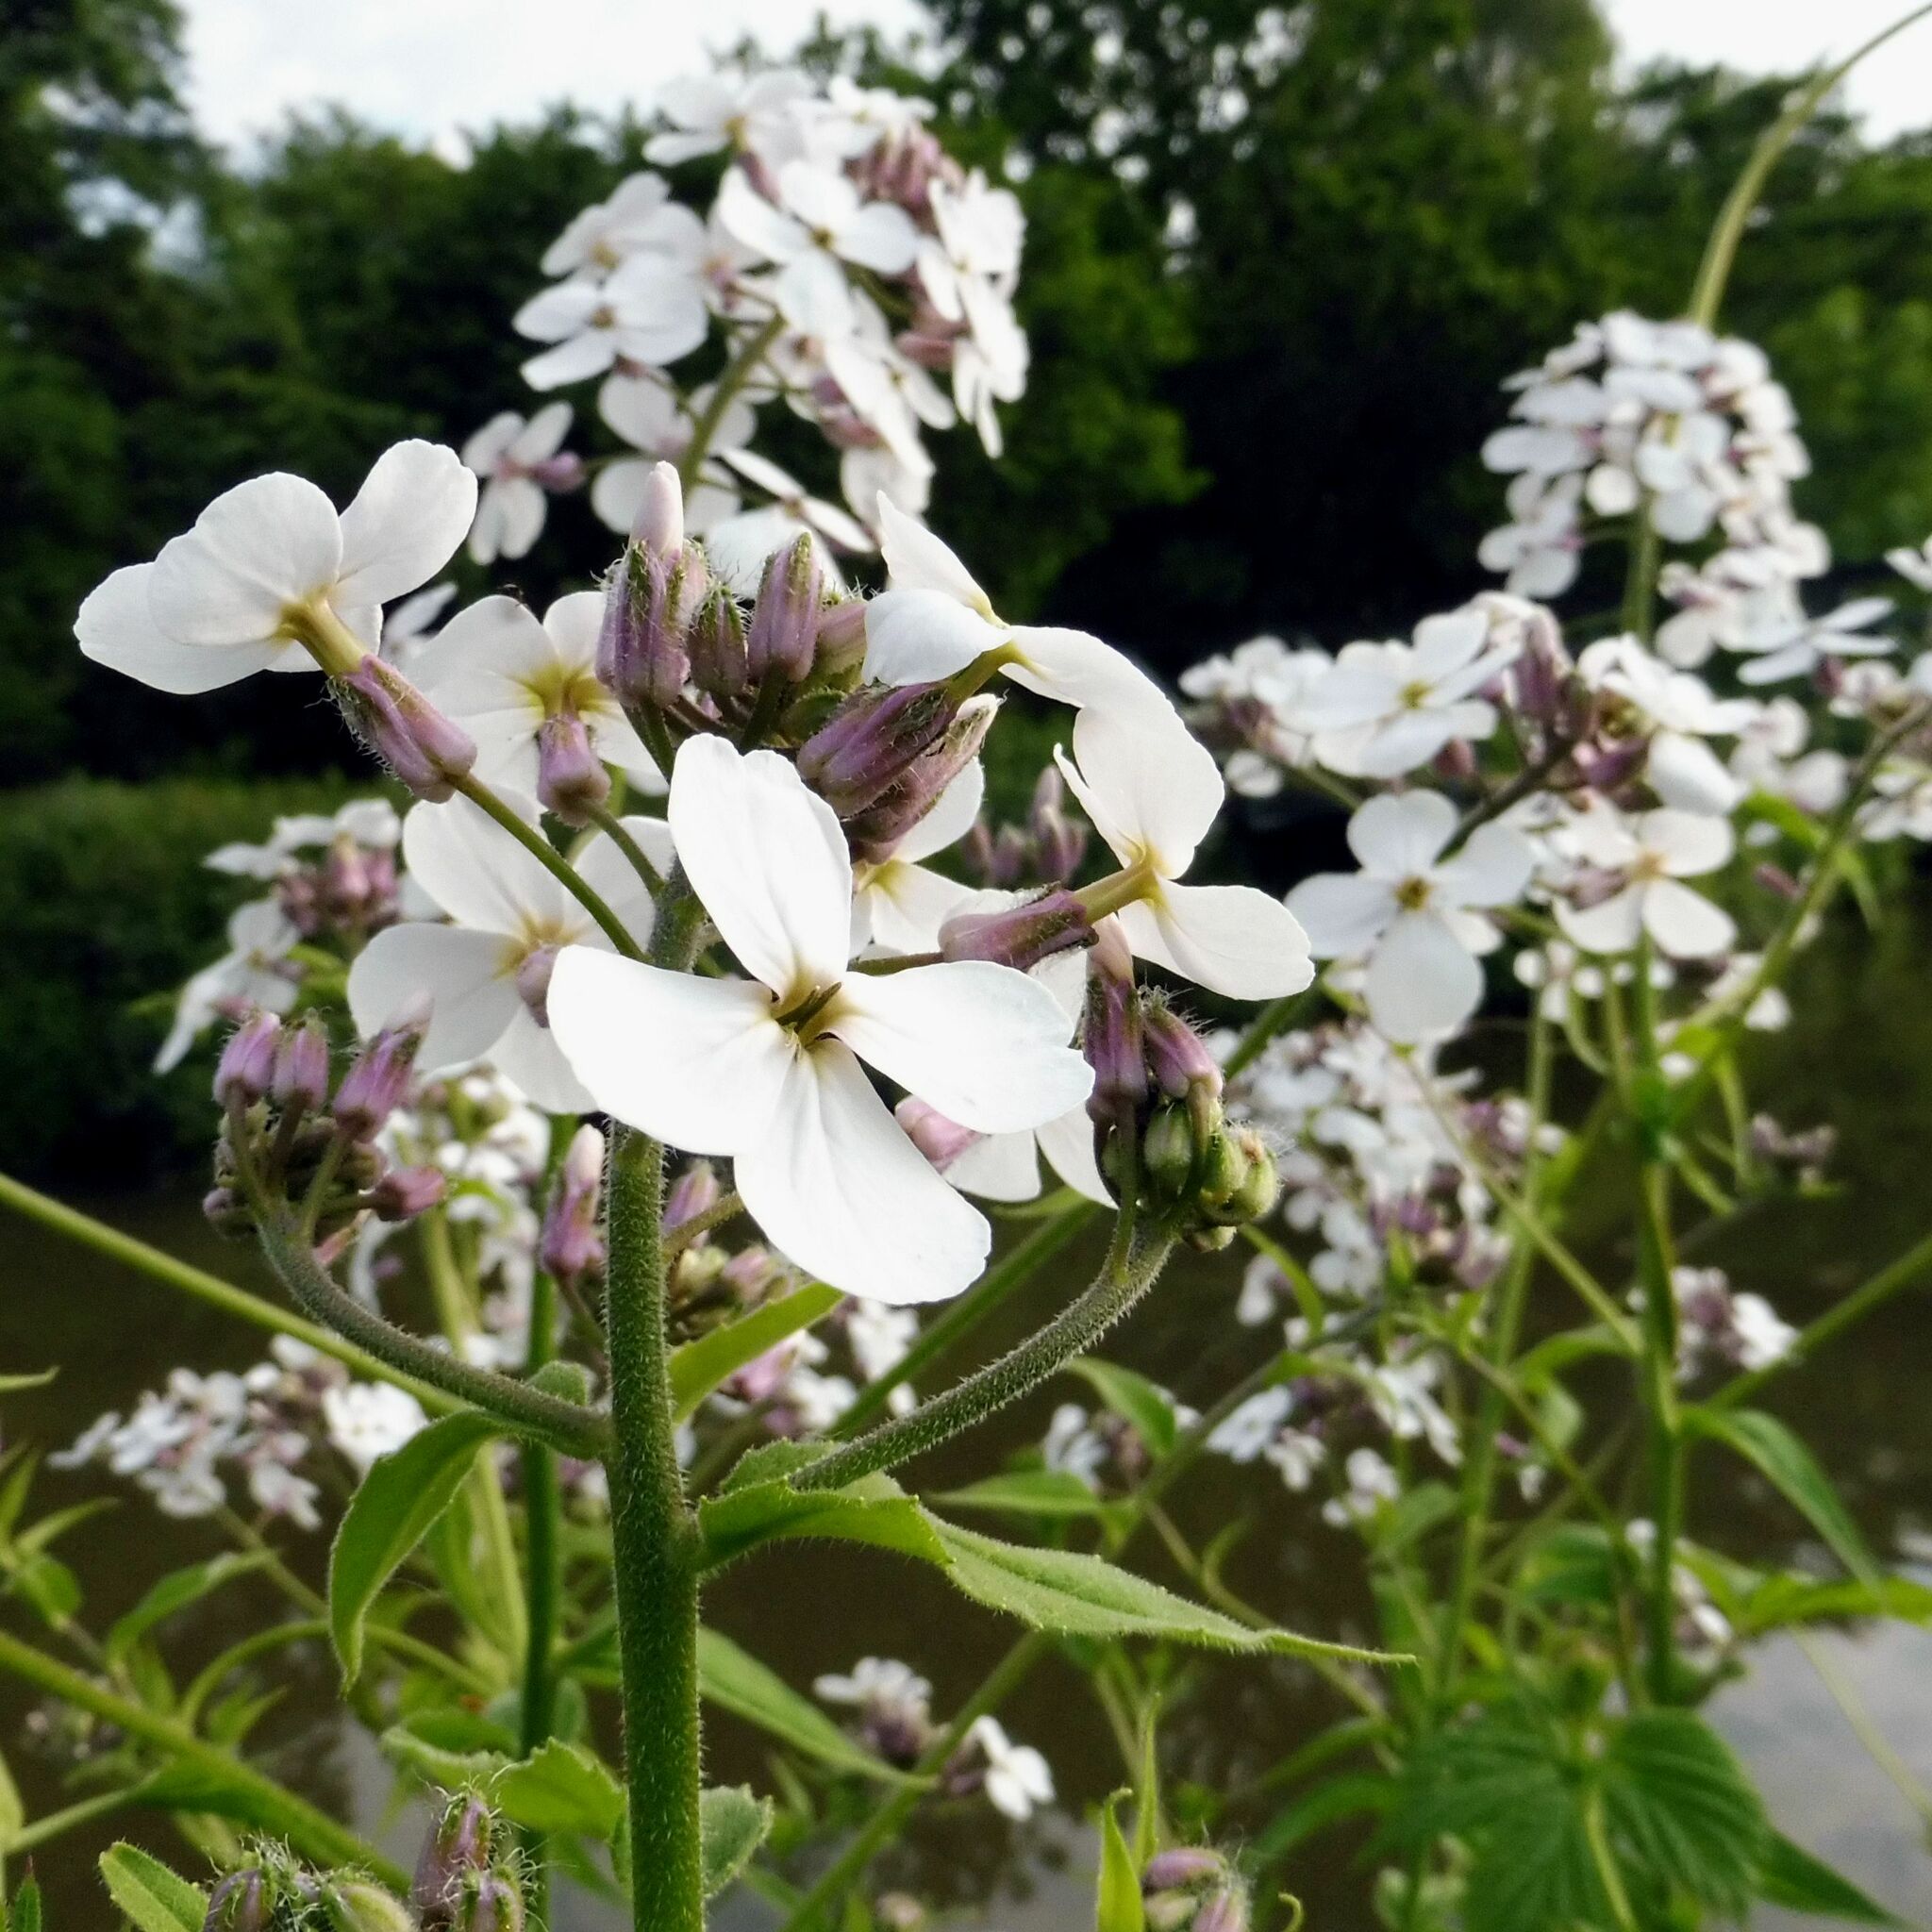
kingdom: Plantae
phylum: Tracheophyta
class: Magnoliopsida
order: Brassicales
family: Brassicaceae
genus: Hesperis
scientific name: Hesperis matronalis
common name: Dame's-violet
